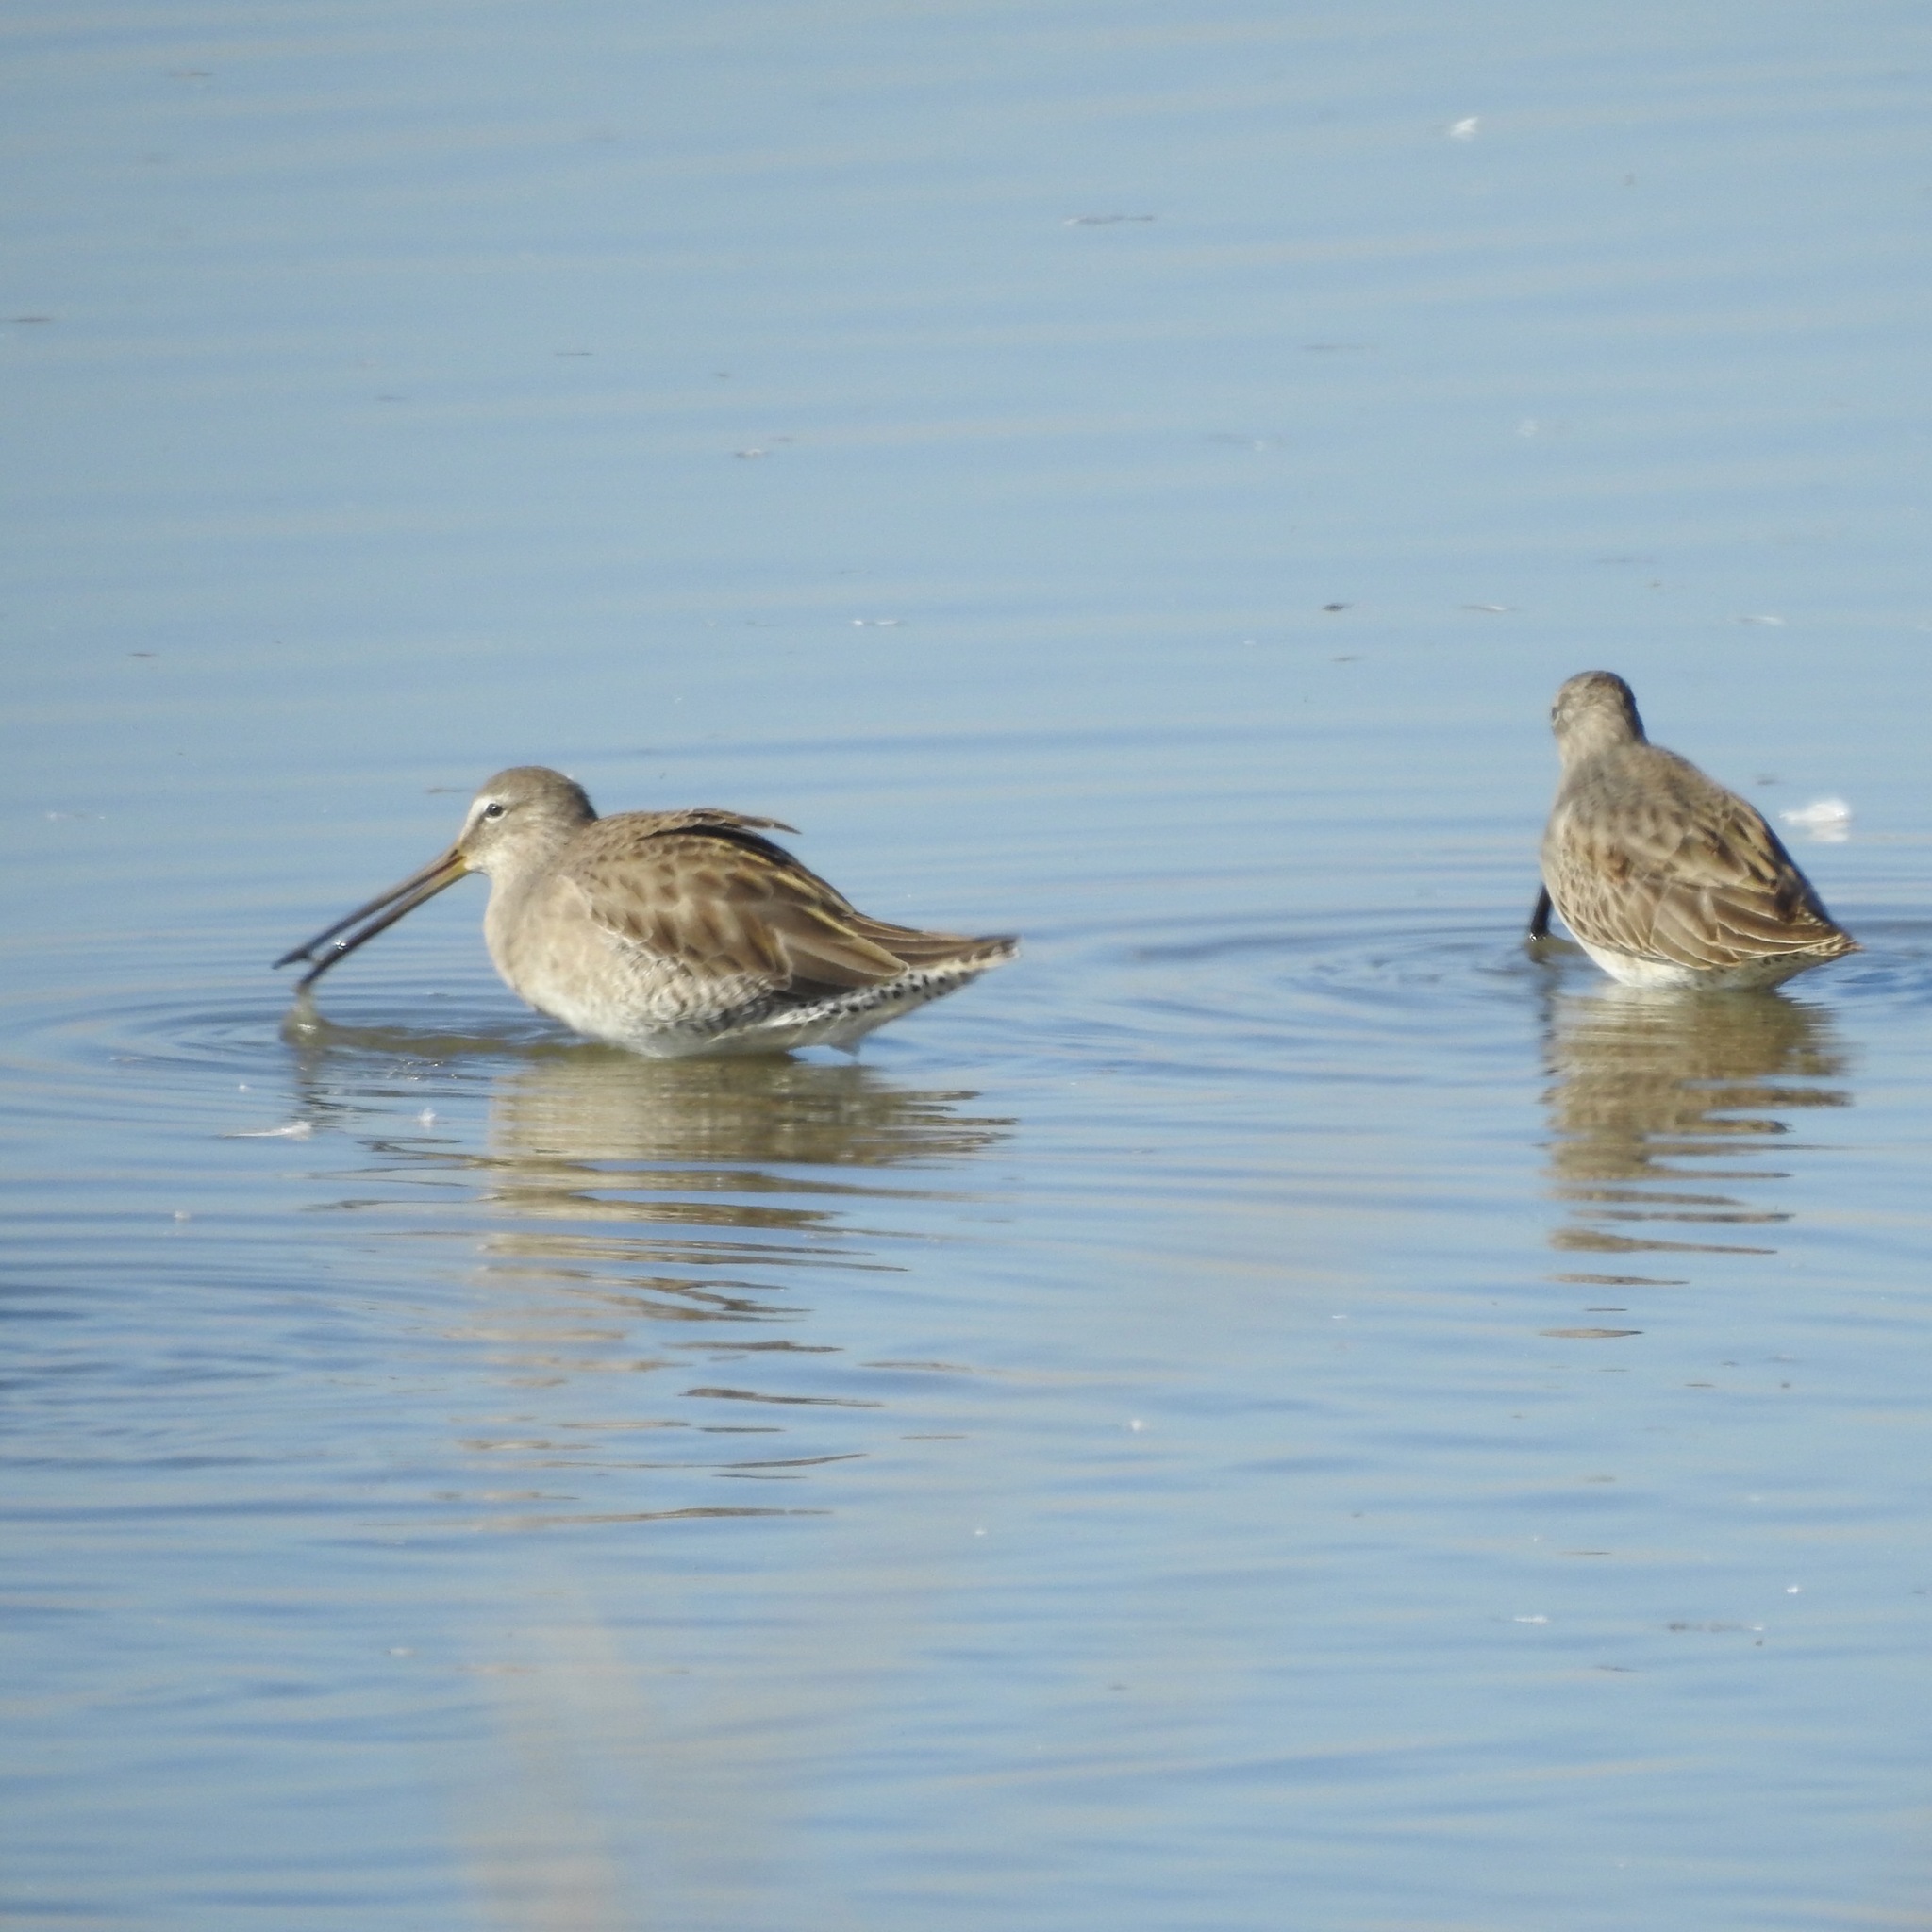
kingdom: Animalia
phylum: Chordata
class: Aves
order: Charadriiformes
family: Scolopacidae
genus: Limnodromus
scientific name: Limnodromus scolopaceus
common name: Long-billed dowitcher
